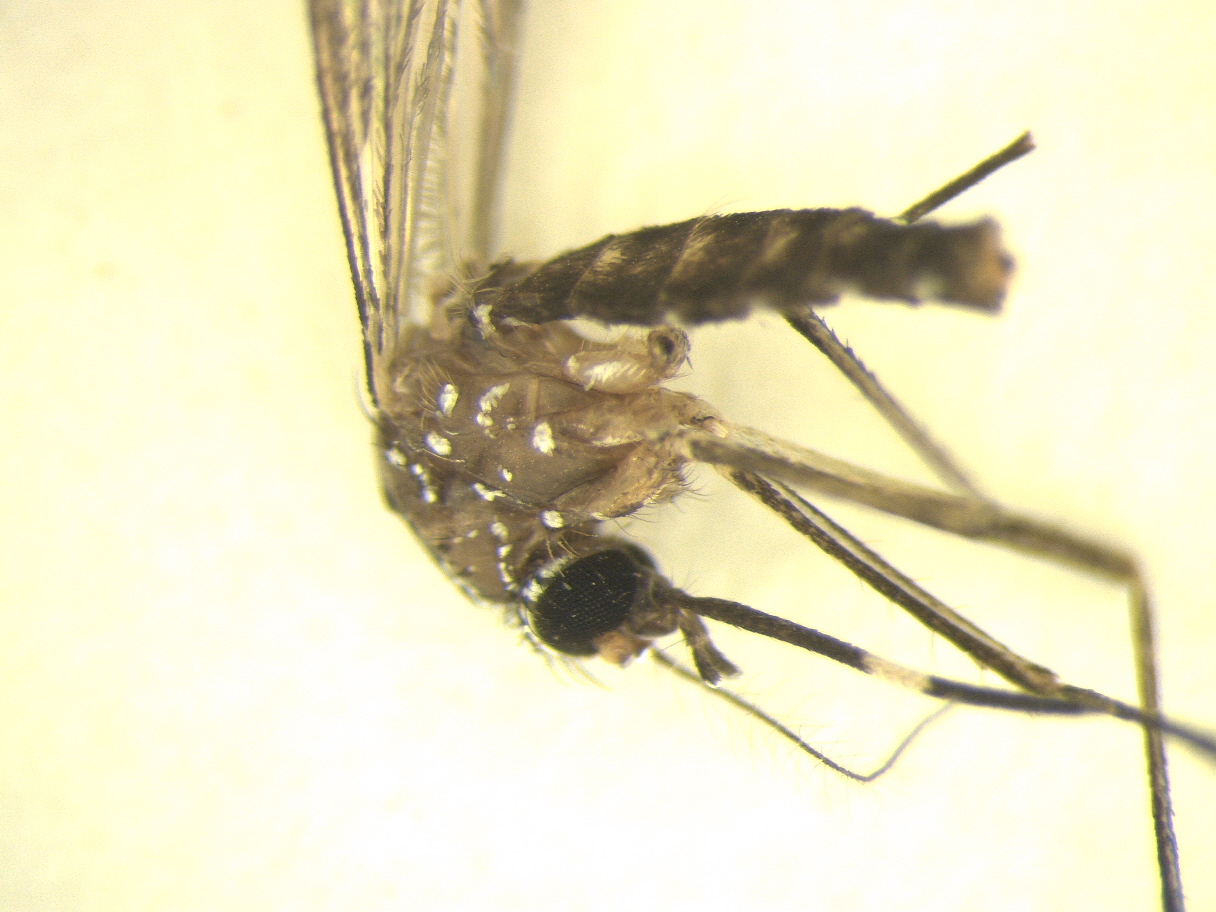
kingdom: Animalia
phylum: Arthropoda
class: Insecta
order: Diptera
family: Culicidae
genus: Aedes
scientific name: Aedes notoscriptus
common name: Australian backyard mosquito
